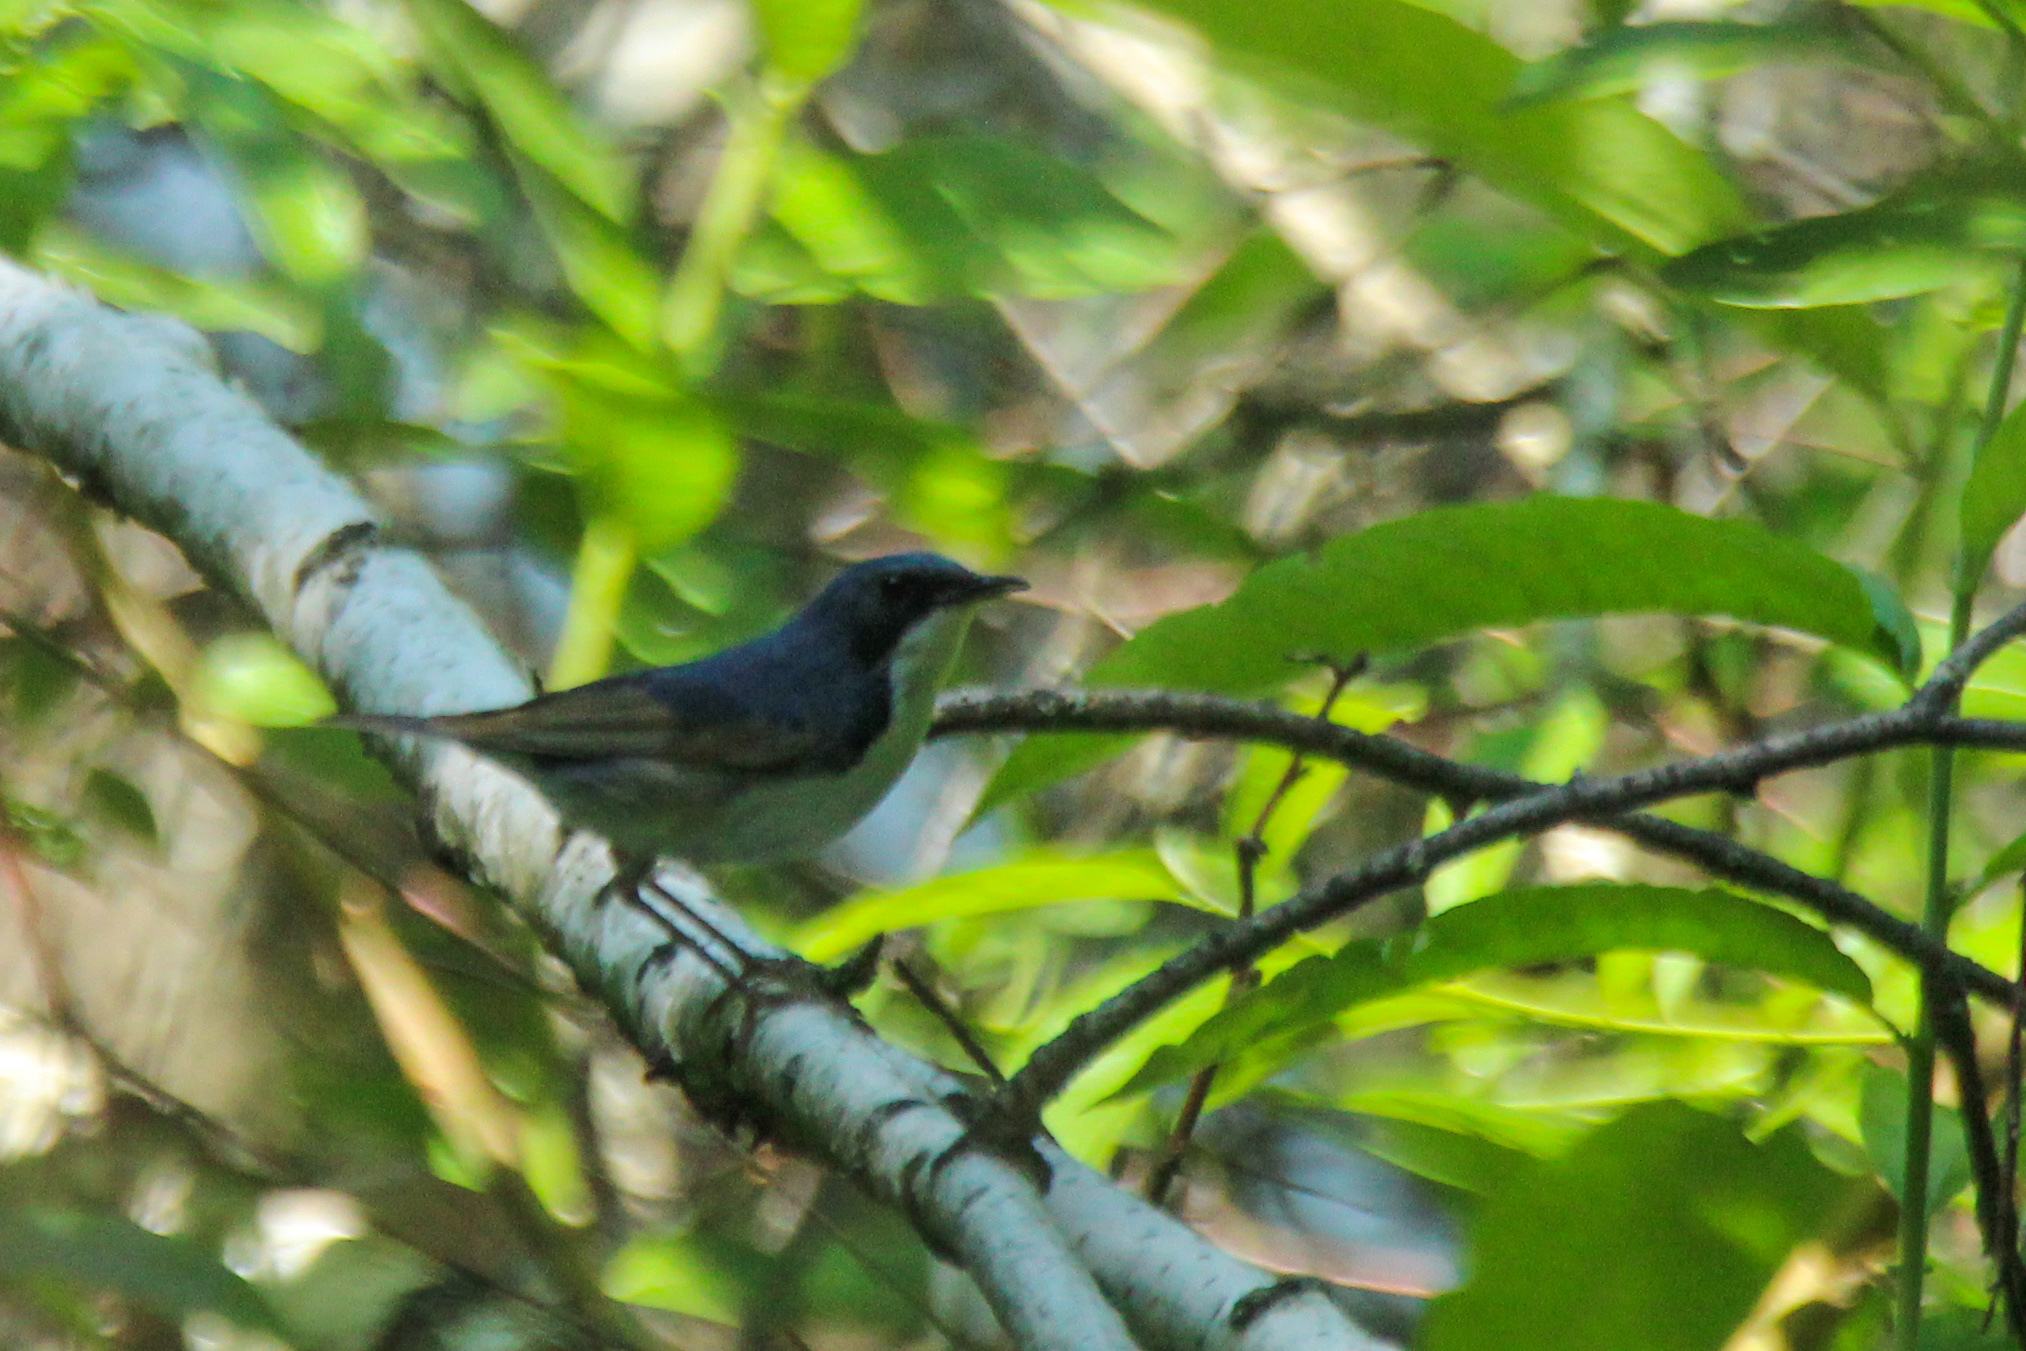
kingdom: Animalia
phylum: Chordata
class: Aves
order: Passeriformes
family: Muscicapidae
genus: Luscinia
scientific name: Luscinia cyane
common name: Siberian blue robin
